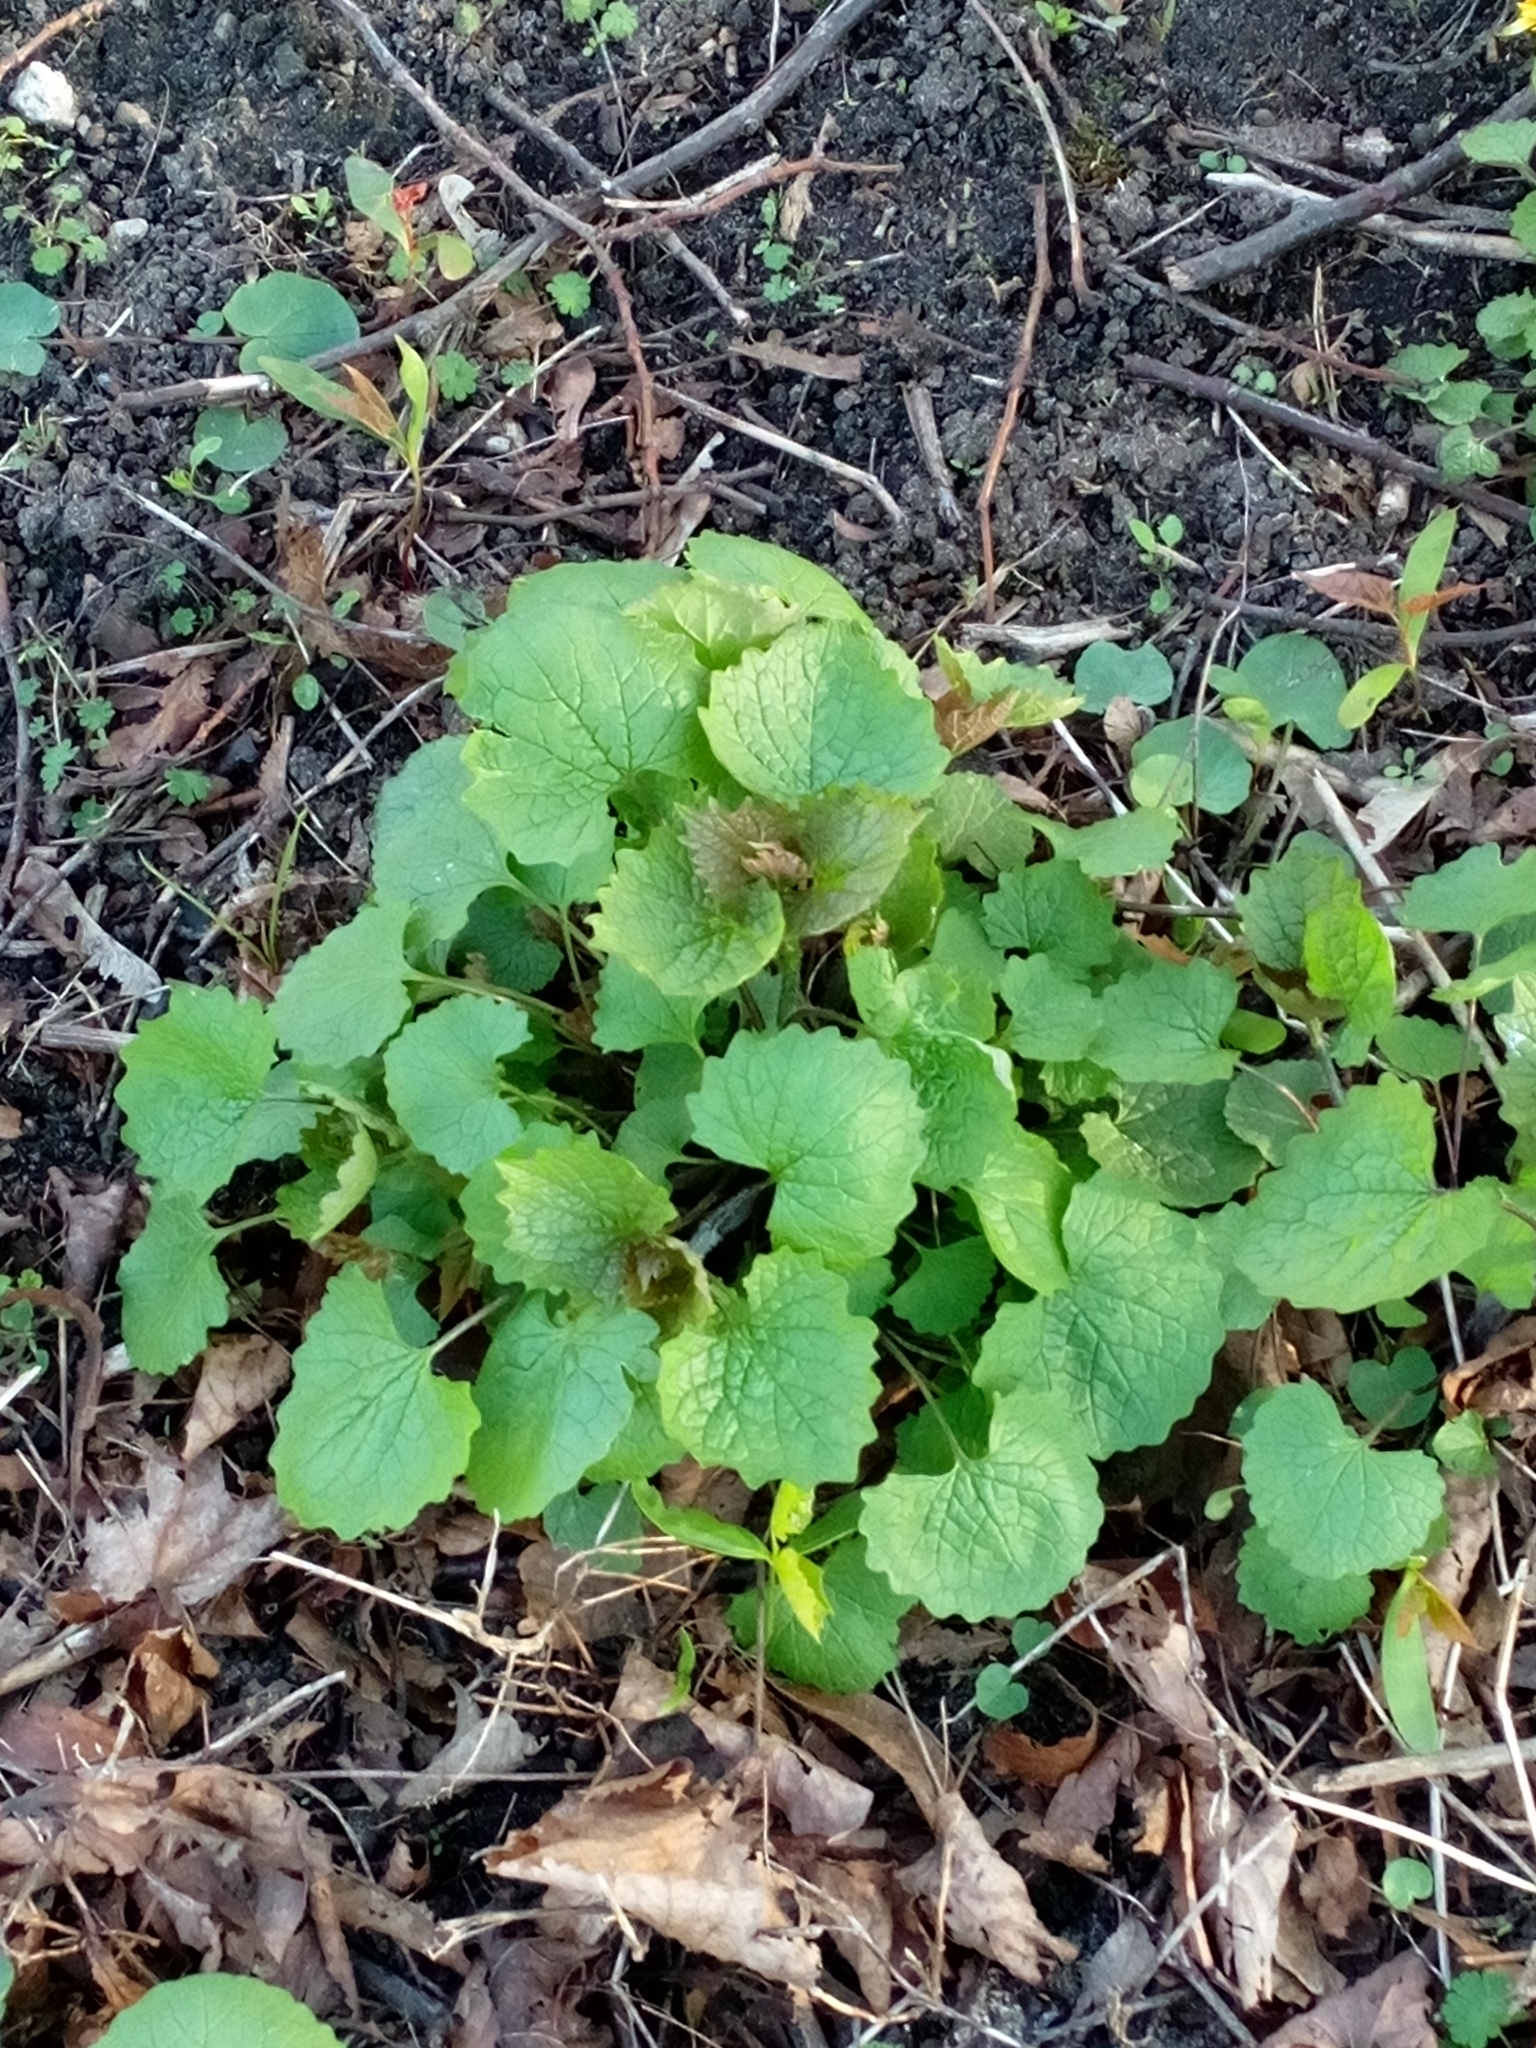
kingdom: Plantae
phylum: Tracheophyta
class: Magnoliopsida
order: Brassicales
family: Brassicaceae
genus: Alliaria
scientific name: Alliaria petiolata
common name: Garlic mustard
